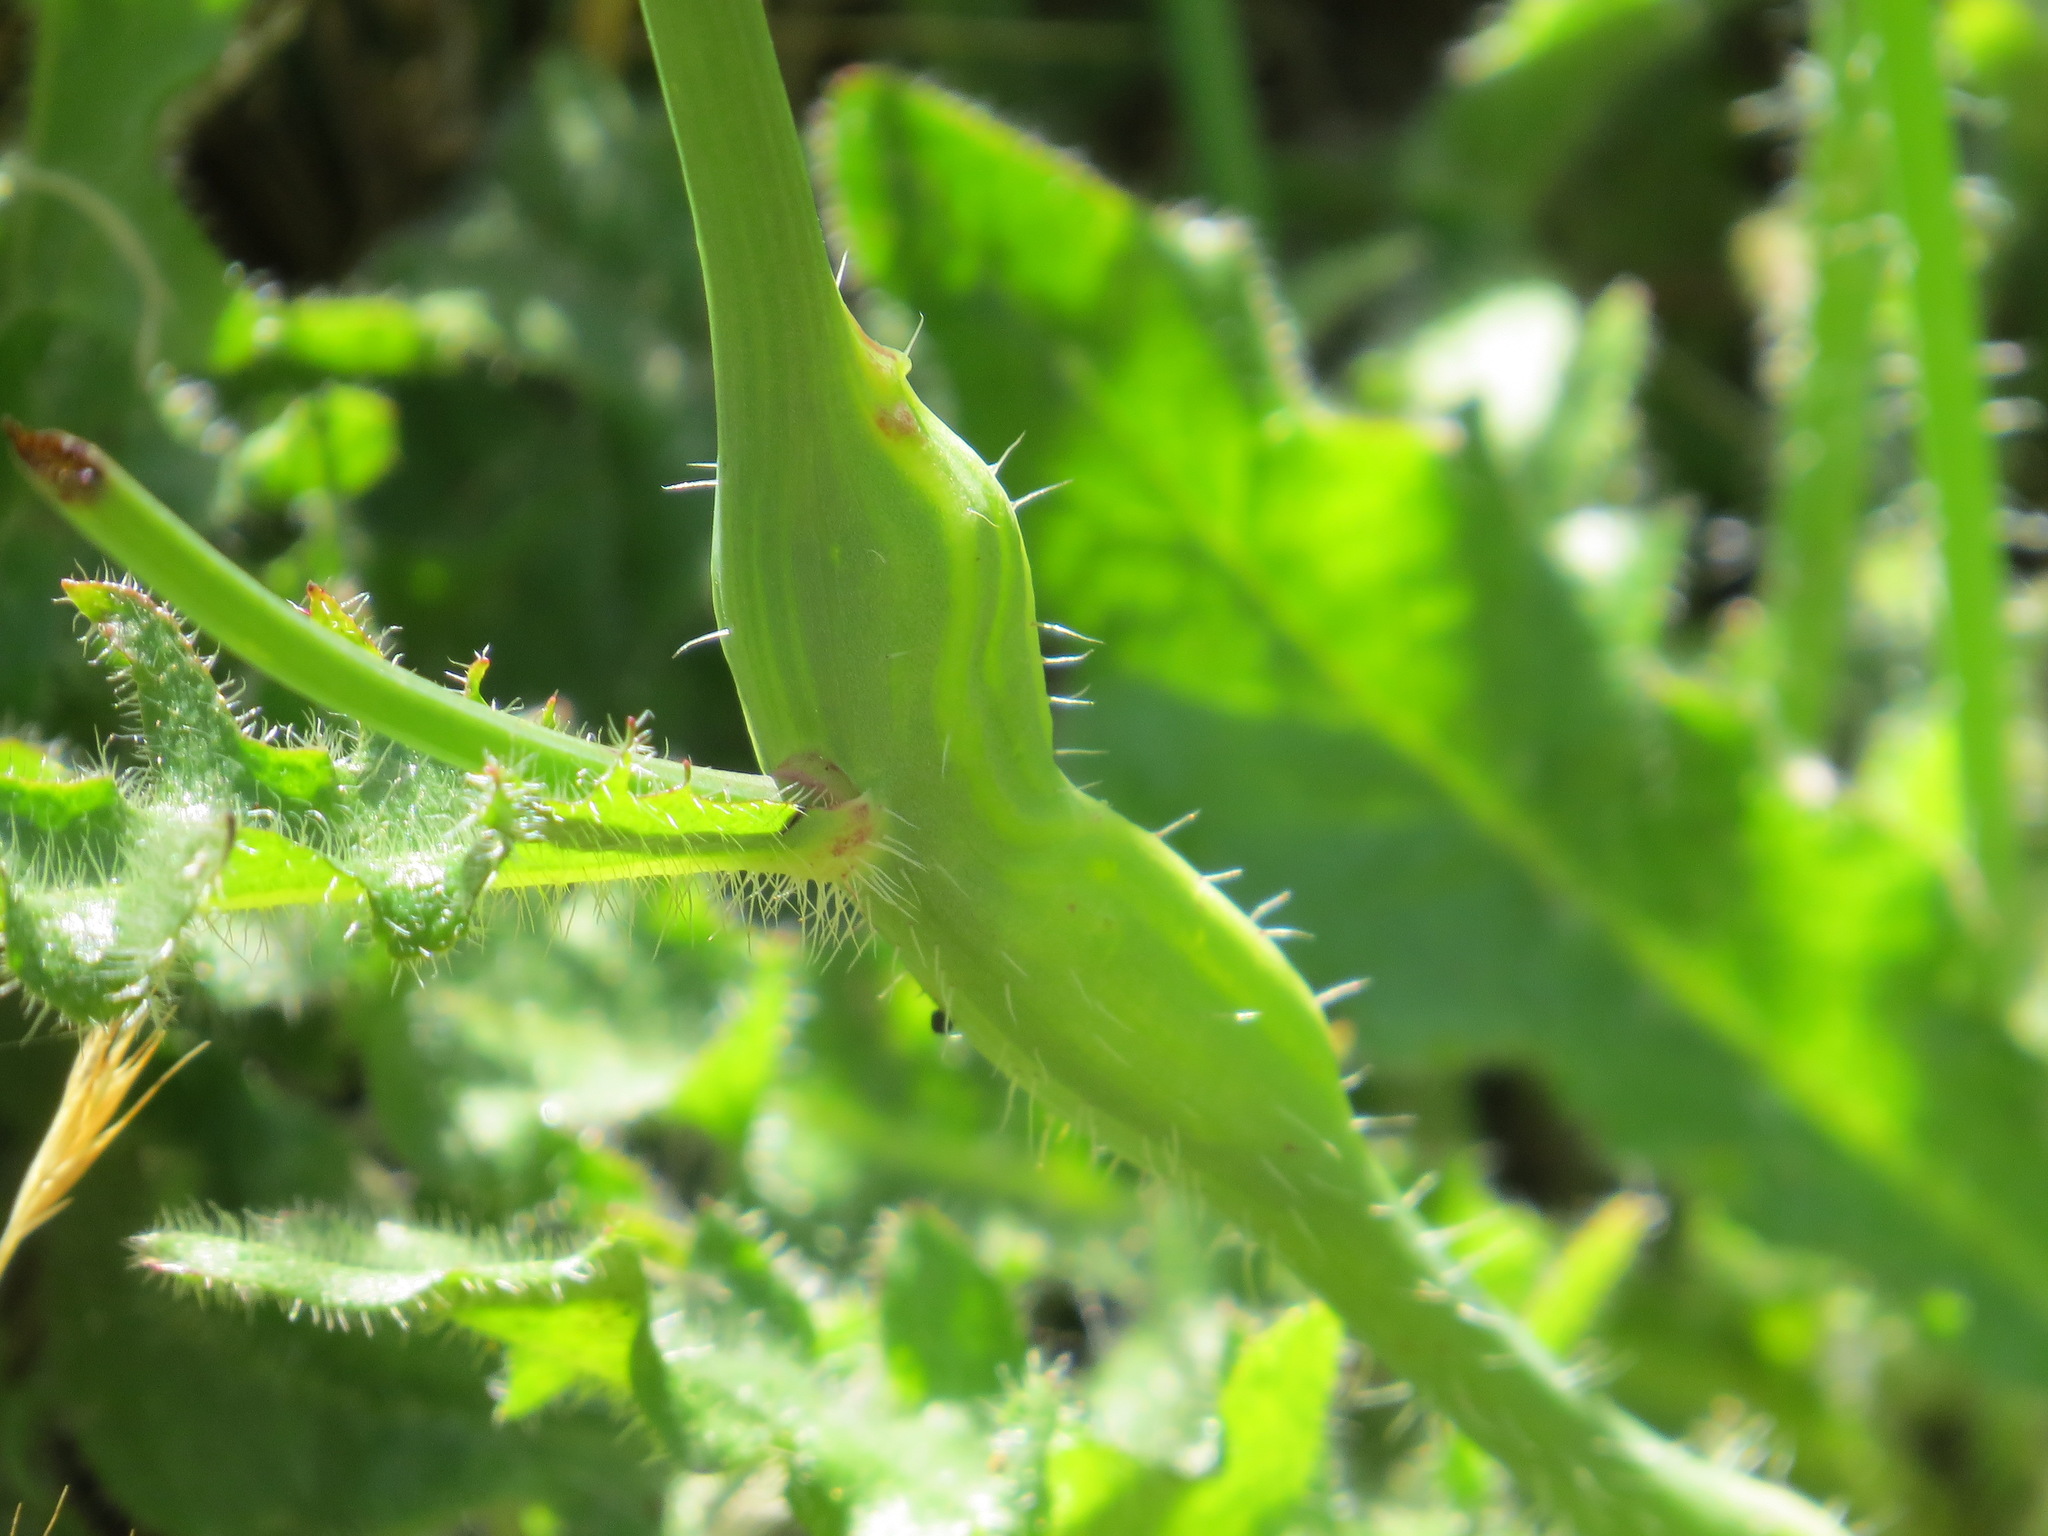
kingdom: Animalia
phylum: Arthropoda
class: Insecta
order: Hymenoptera
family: Cynipidae
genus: Phanacis
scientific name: Phanacis hypochoeridis
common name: Gall wasp
